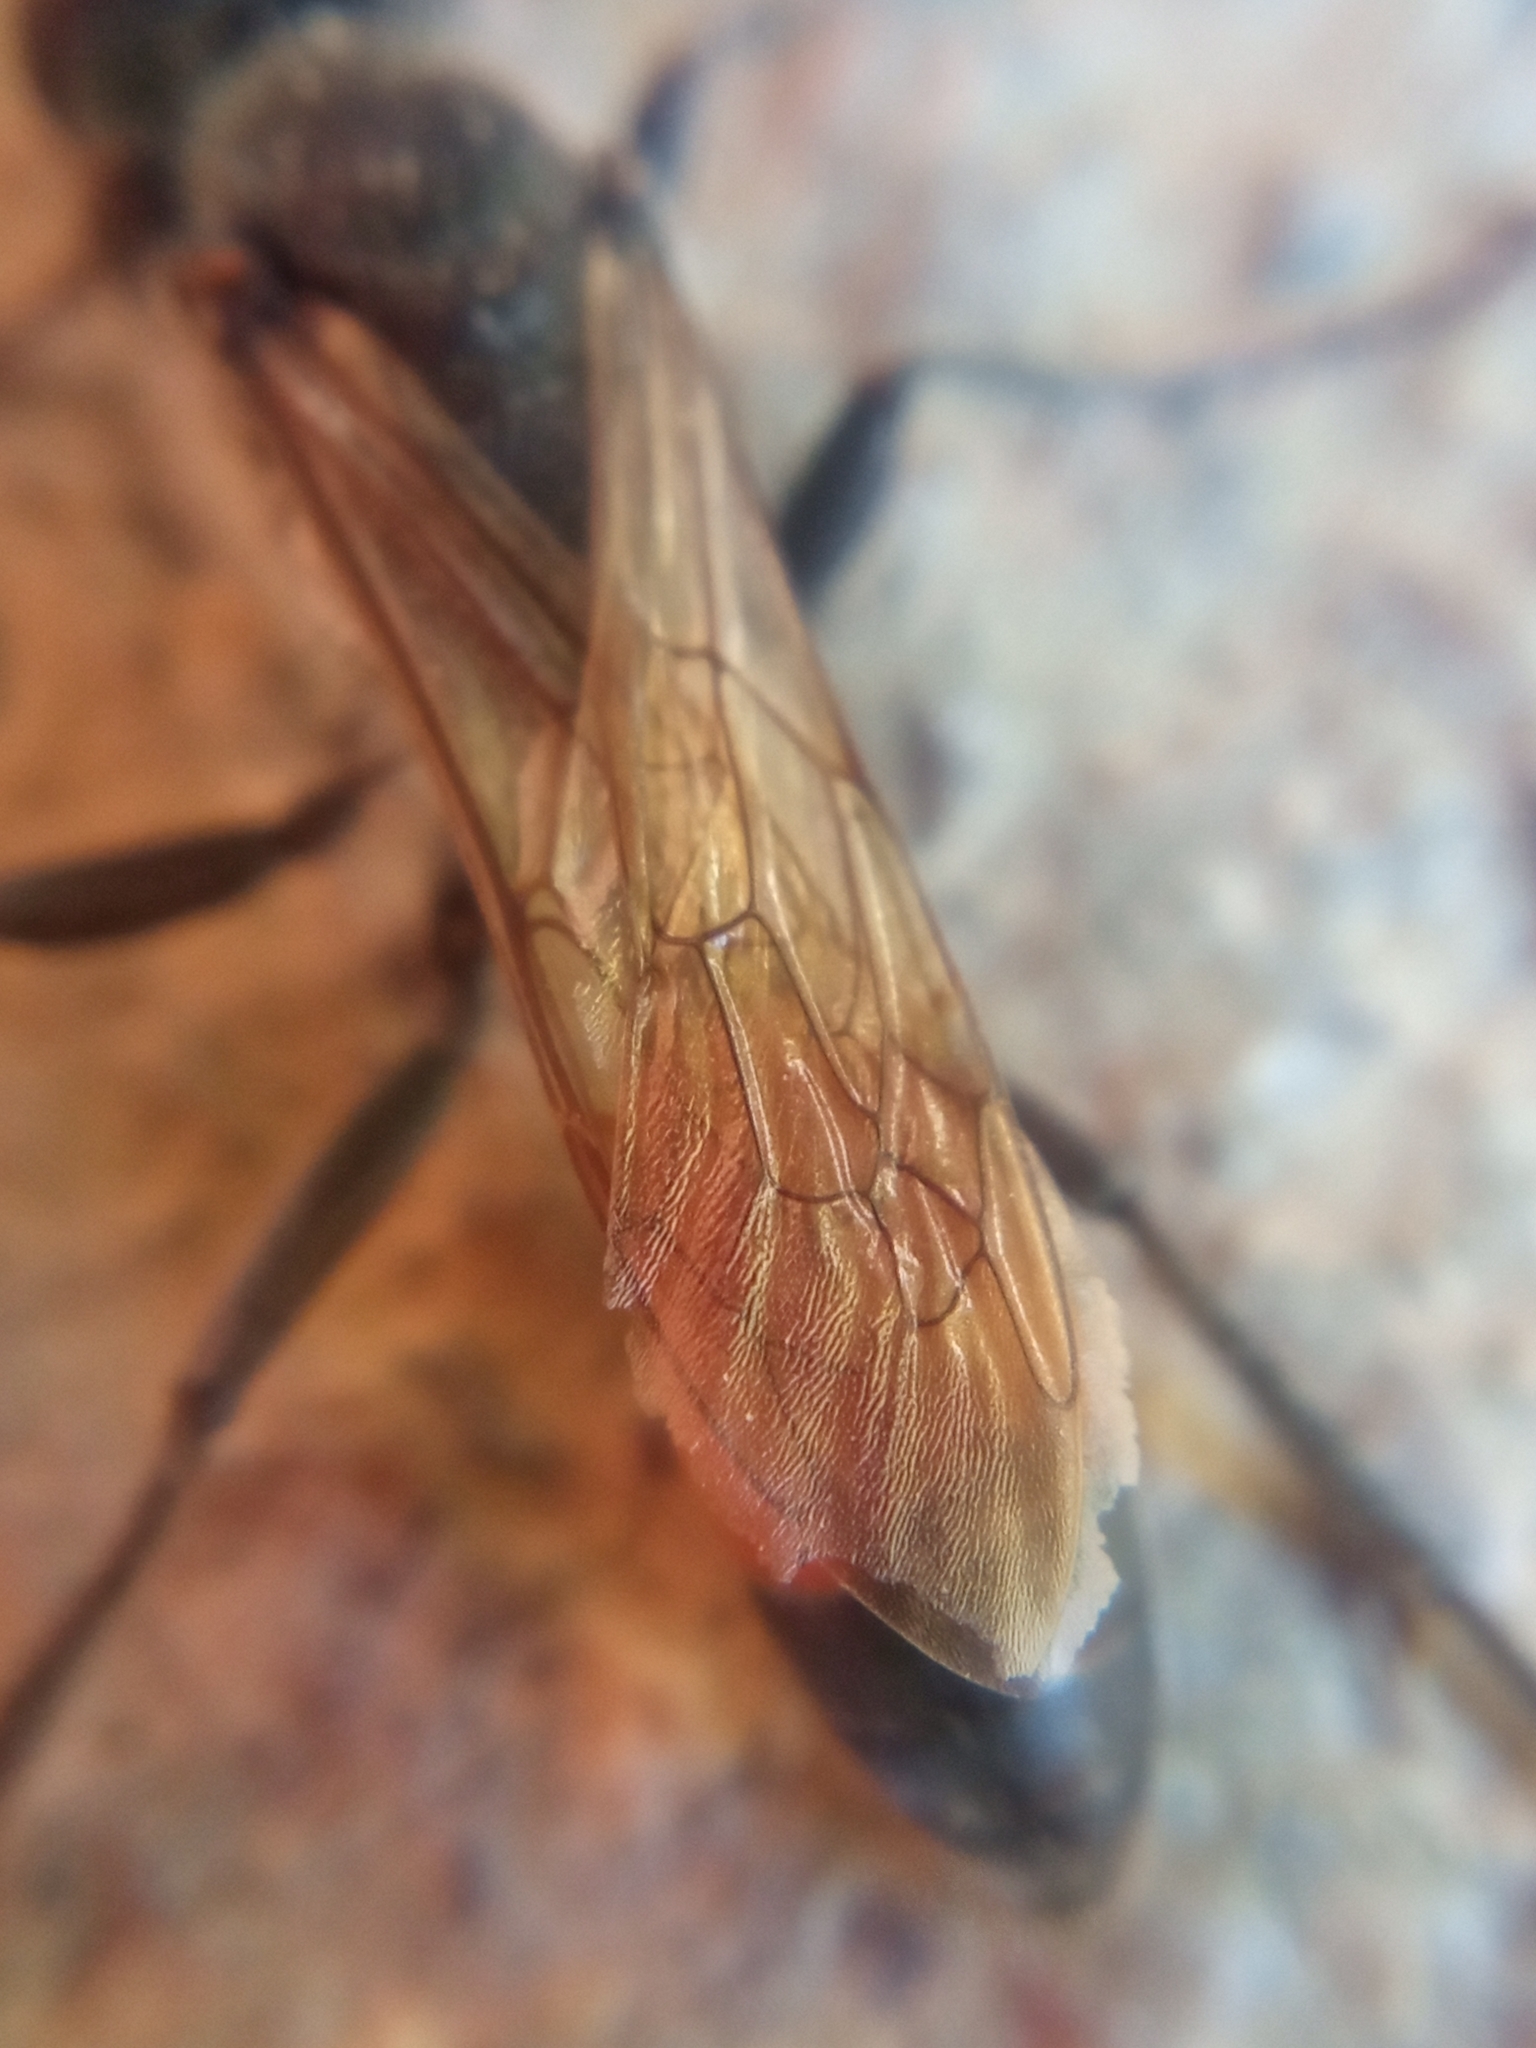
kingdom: Animalia
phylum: Arthropoda
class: Insecta
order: Hymenoptera
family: Sphecidae
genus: Sphex
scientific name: Sphex funerarius
